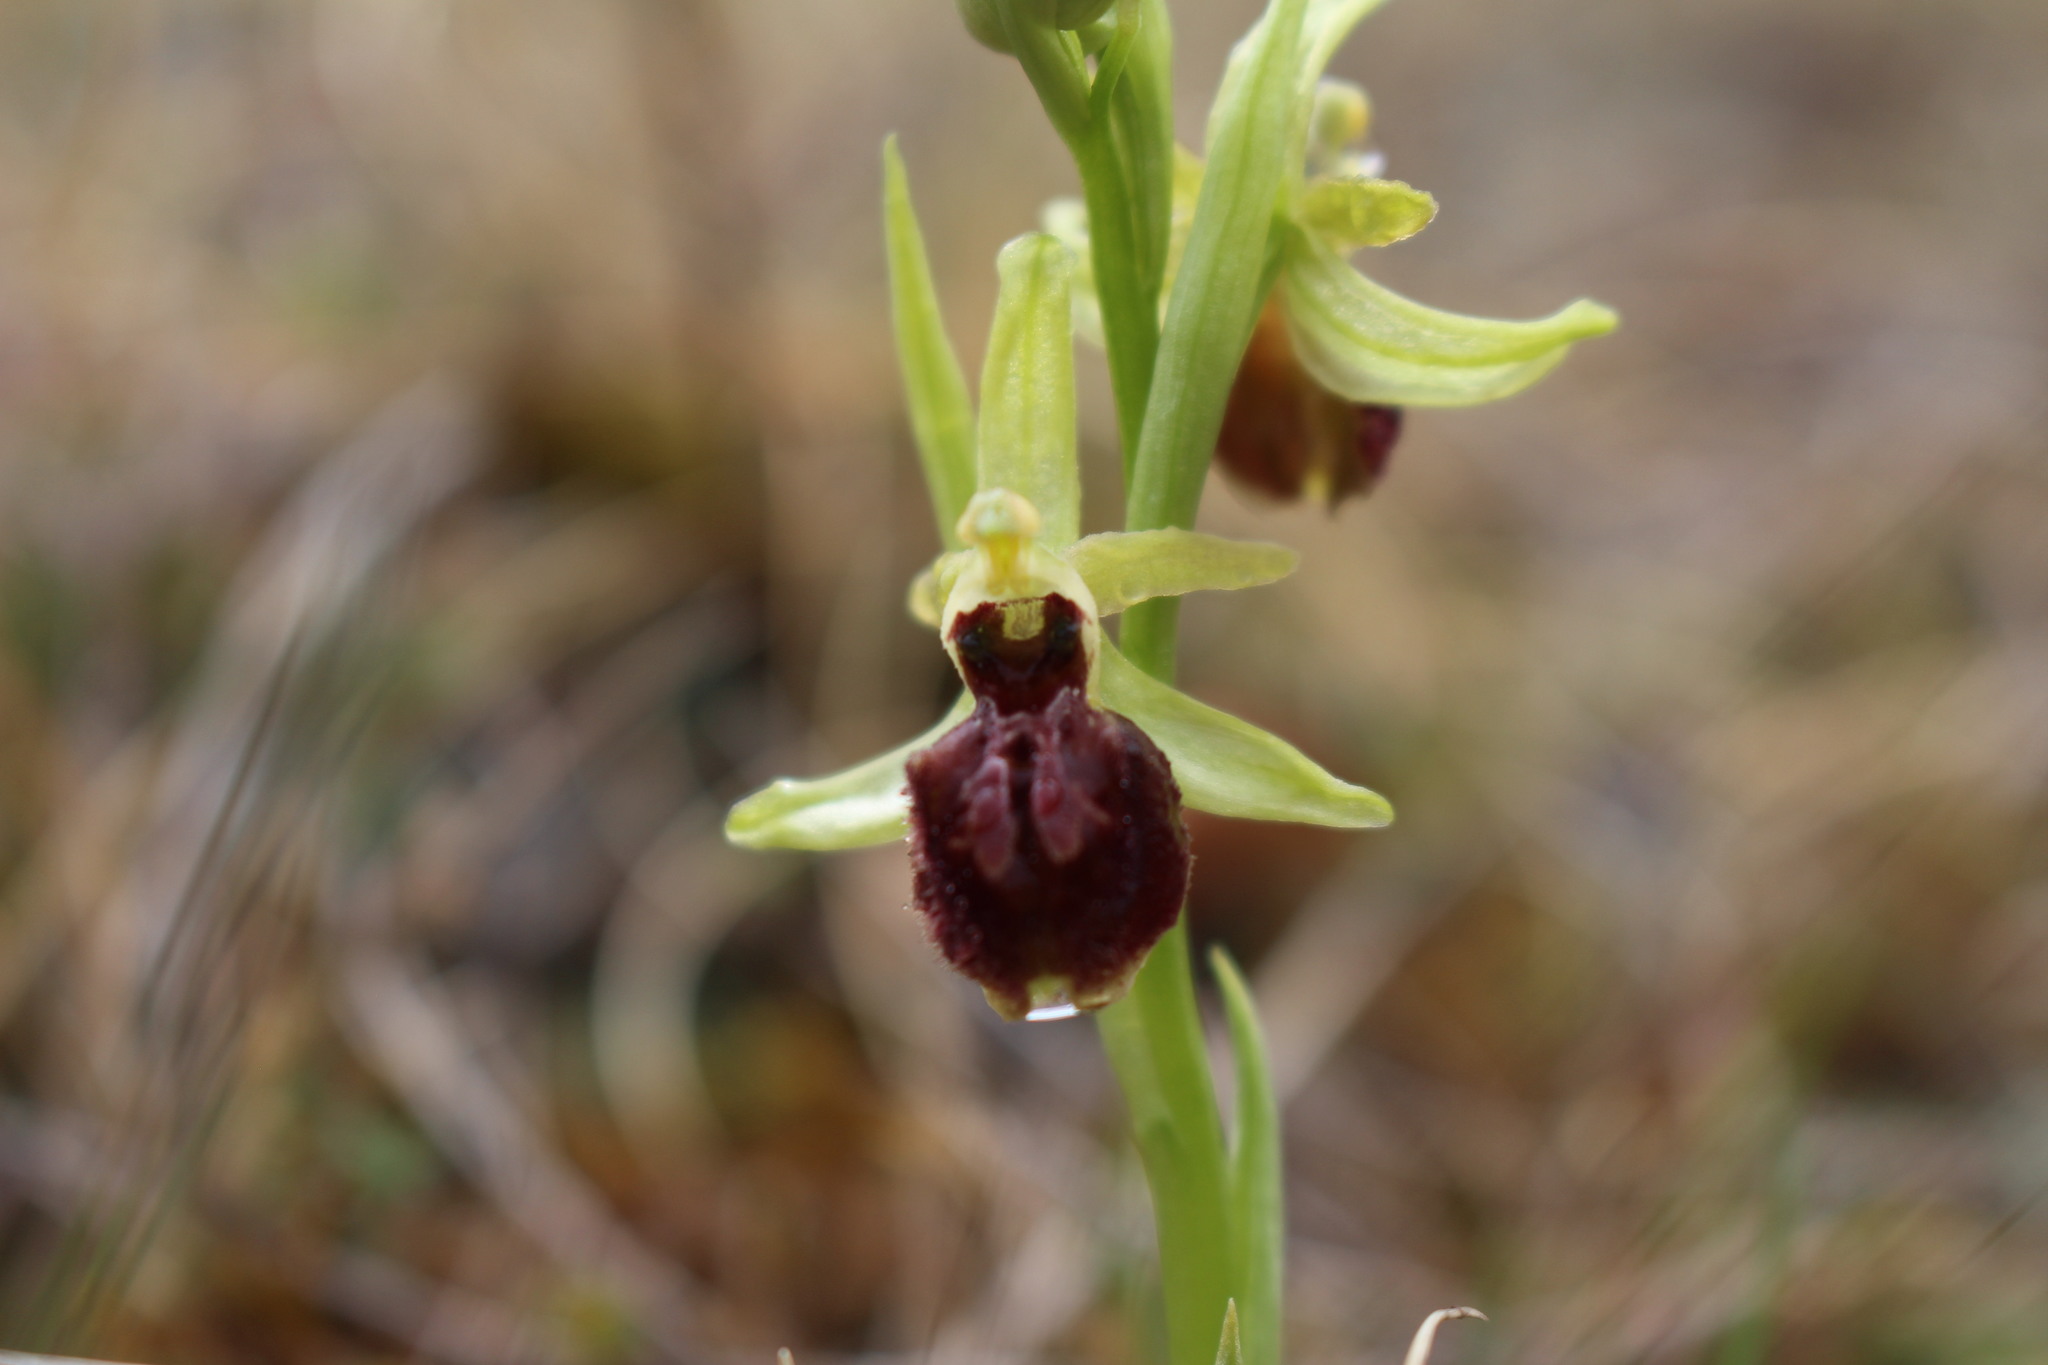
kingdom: Plantae
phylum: Tracheophyta
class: Liliopsida
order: Asparagales
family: Orchidaceae
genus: Ophrys
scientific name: Ophrys arachnitiformis
